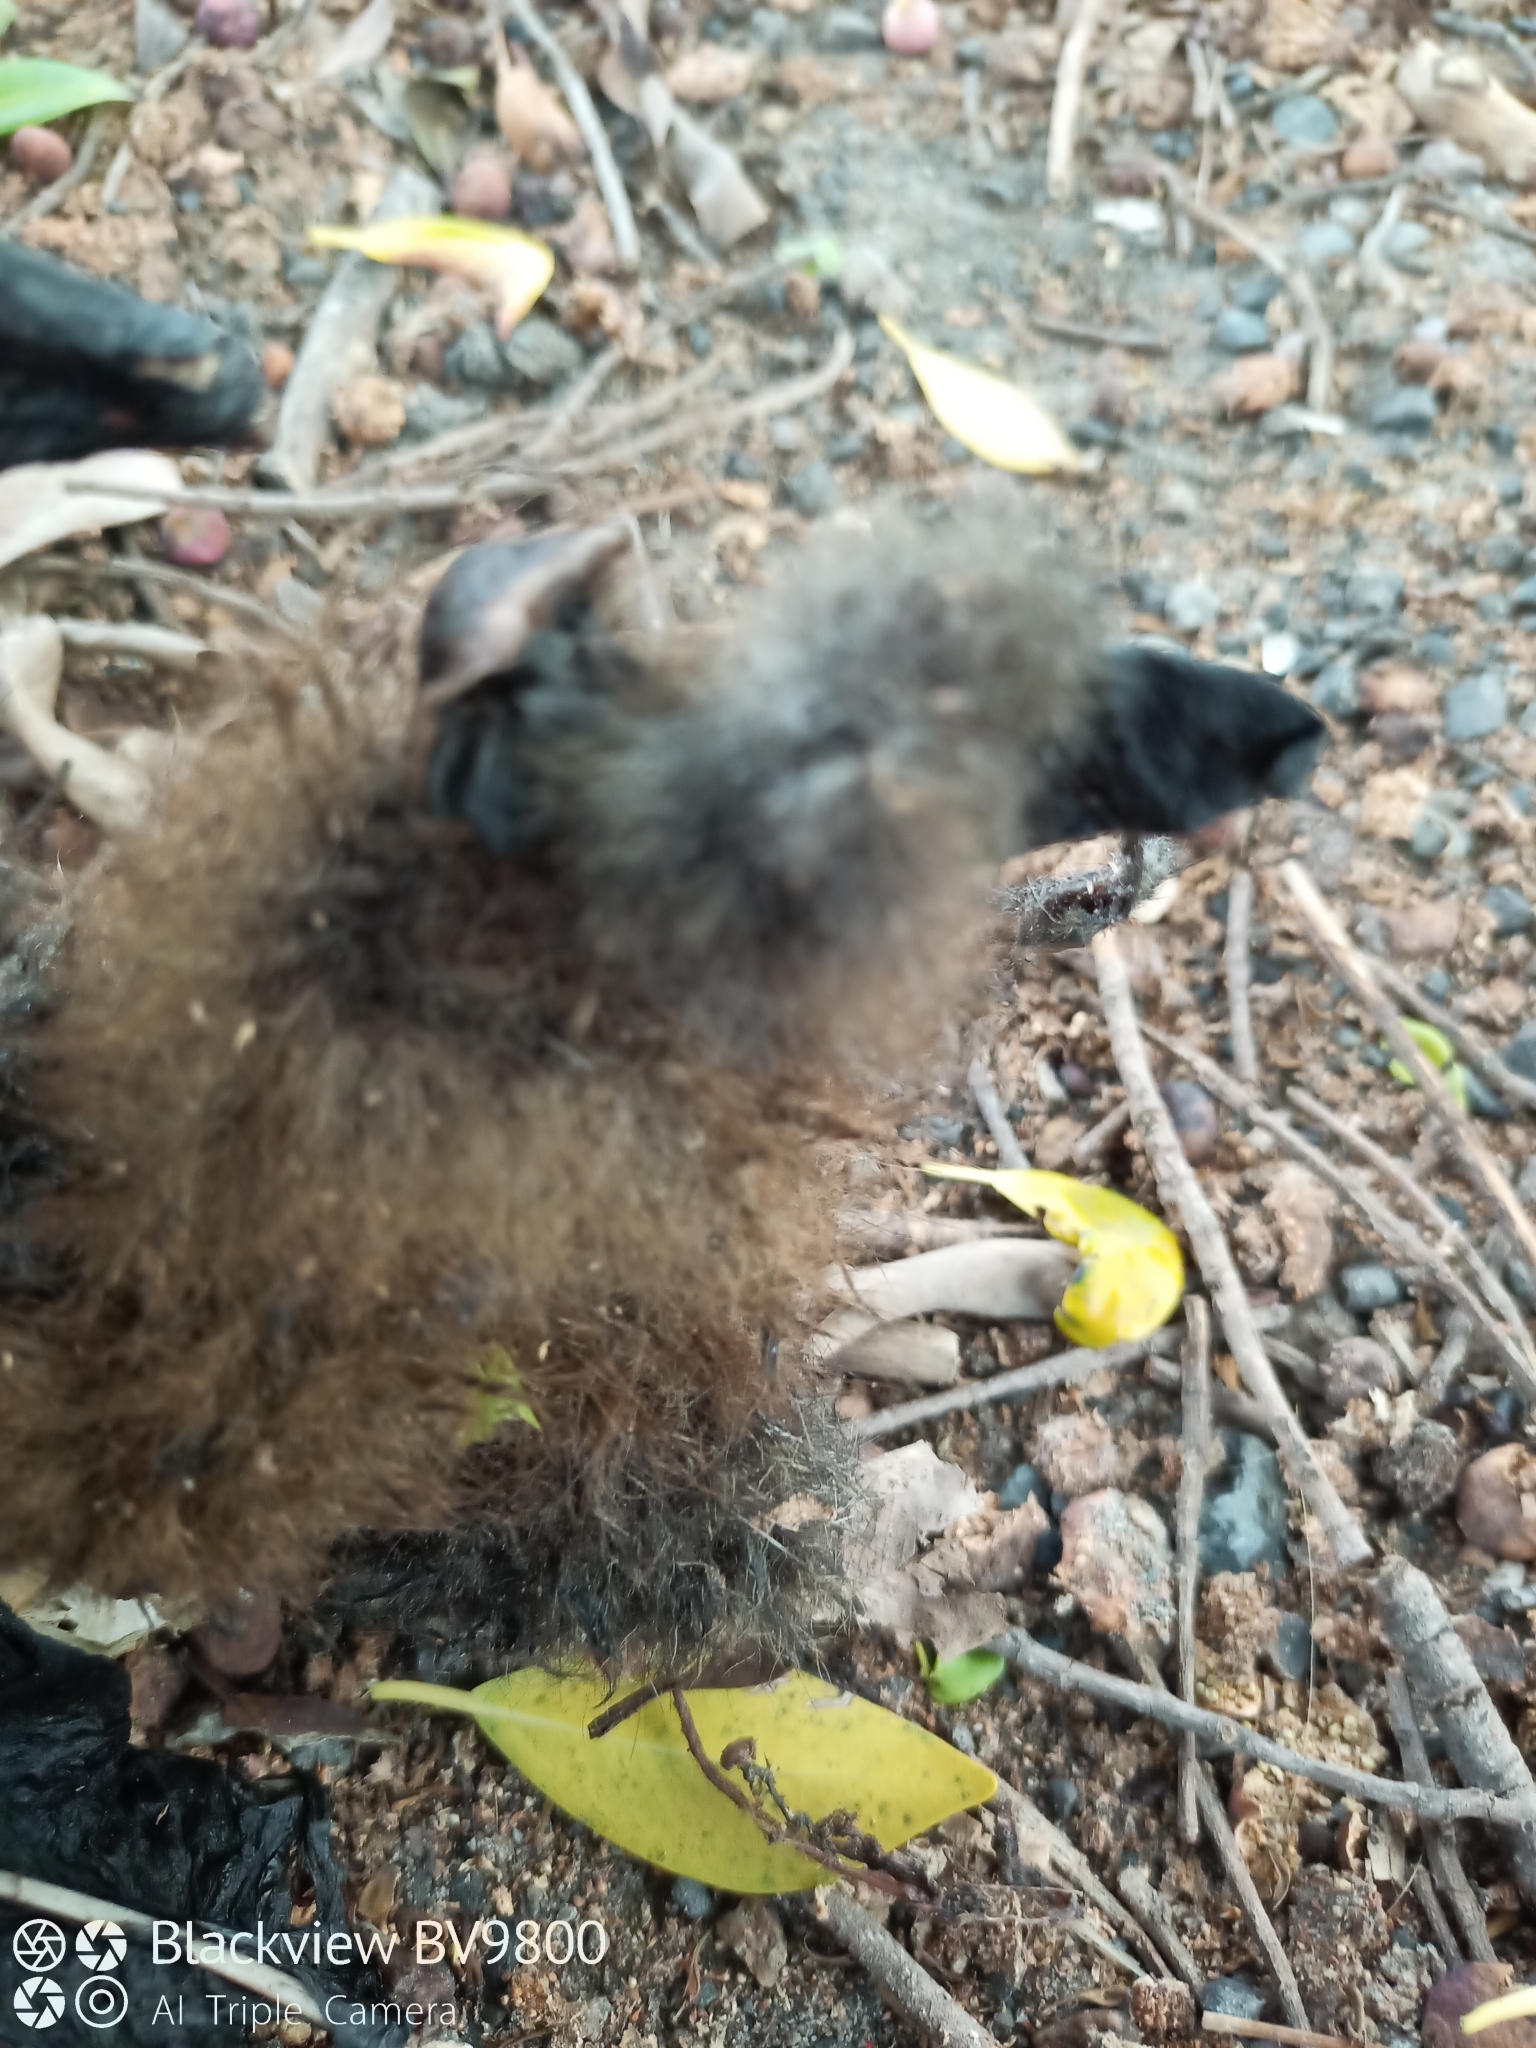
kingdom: Animalia
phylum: Chordata
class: Mammalia
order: Chiroptera
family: Pteropodidae
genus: Pteropus
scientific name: Pteropus poliocephalus
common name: Gray-headed flying fox
